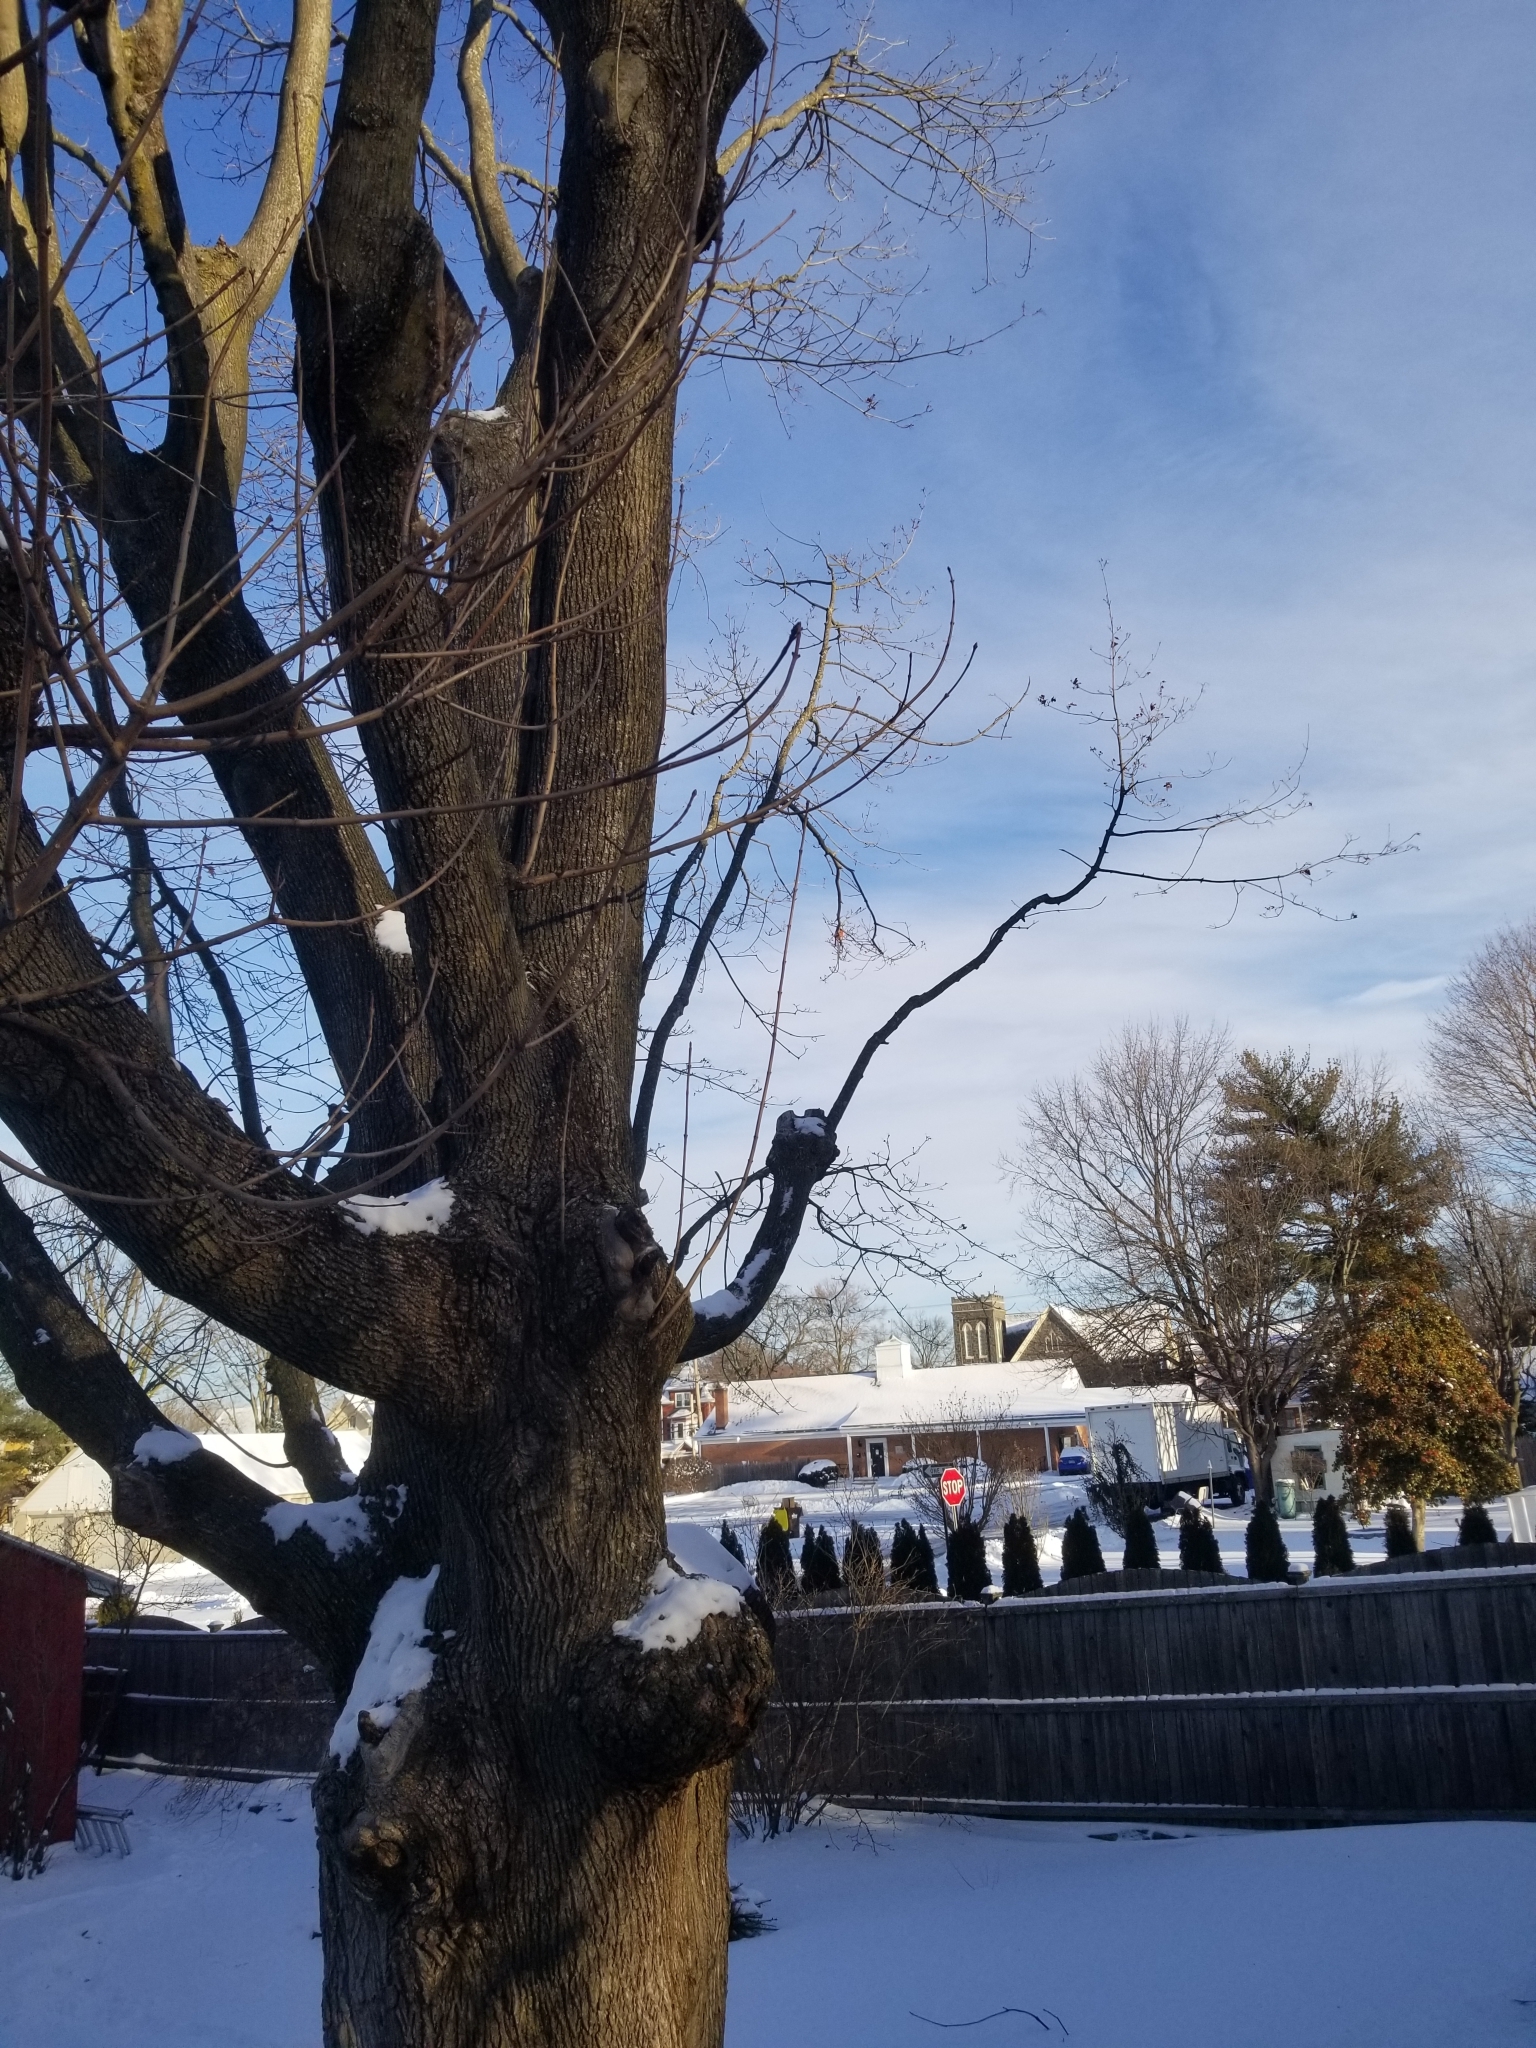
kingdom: Animalia
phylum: Chordata
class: Aves
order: Passeriformes
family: Cardinalidae
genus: Cardinalis
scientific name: Cardinalis cardinalis
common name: Northern cardinal
